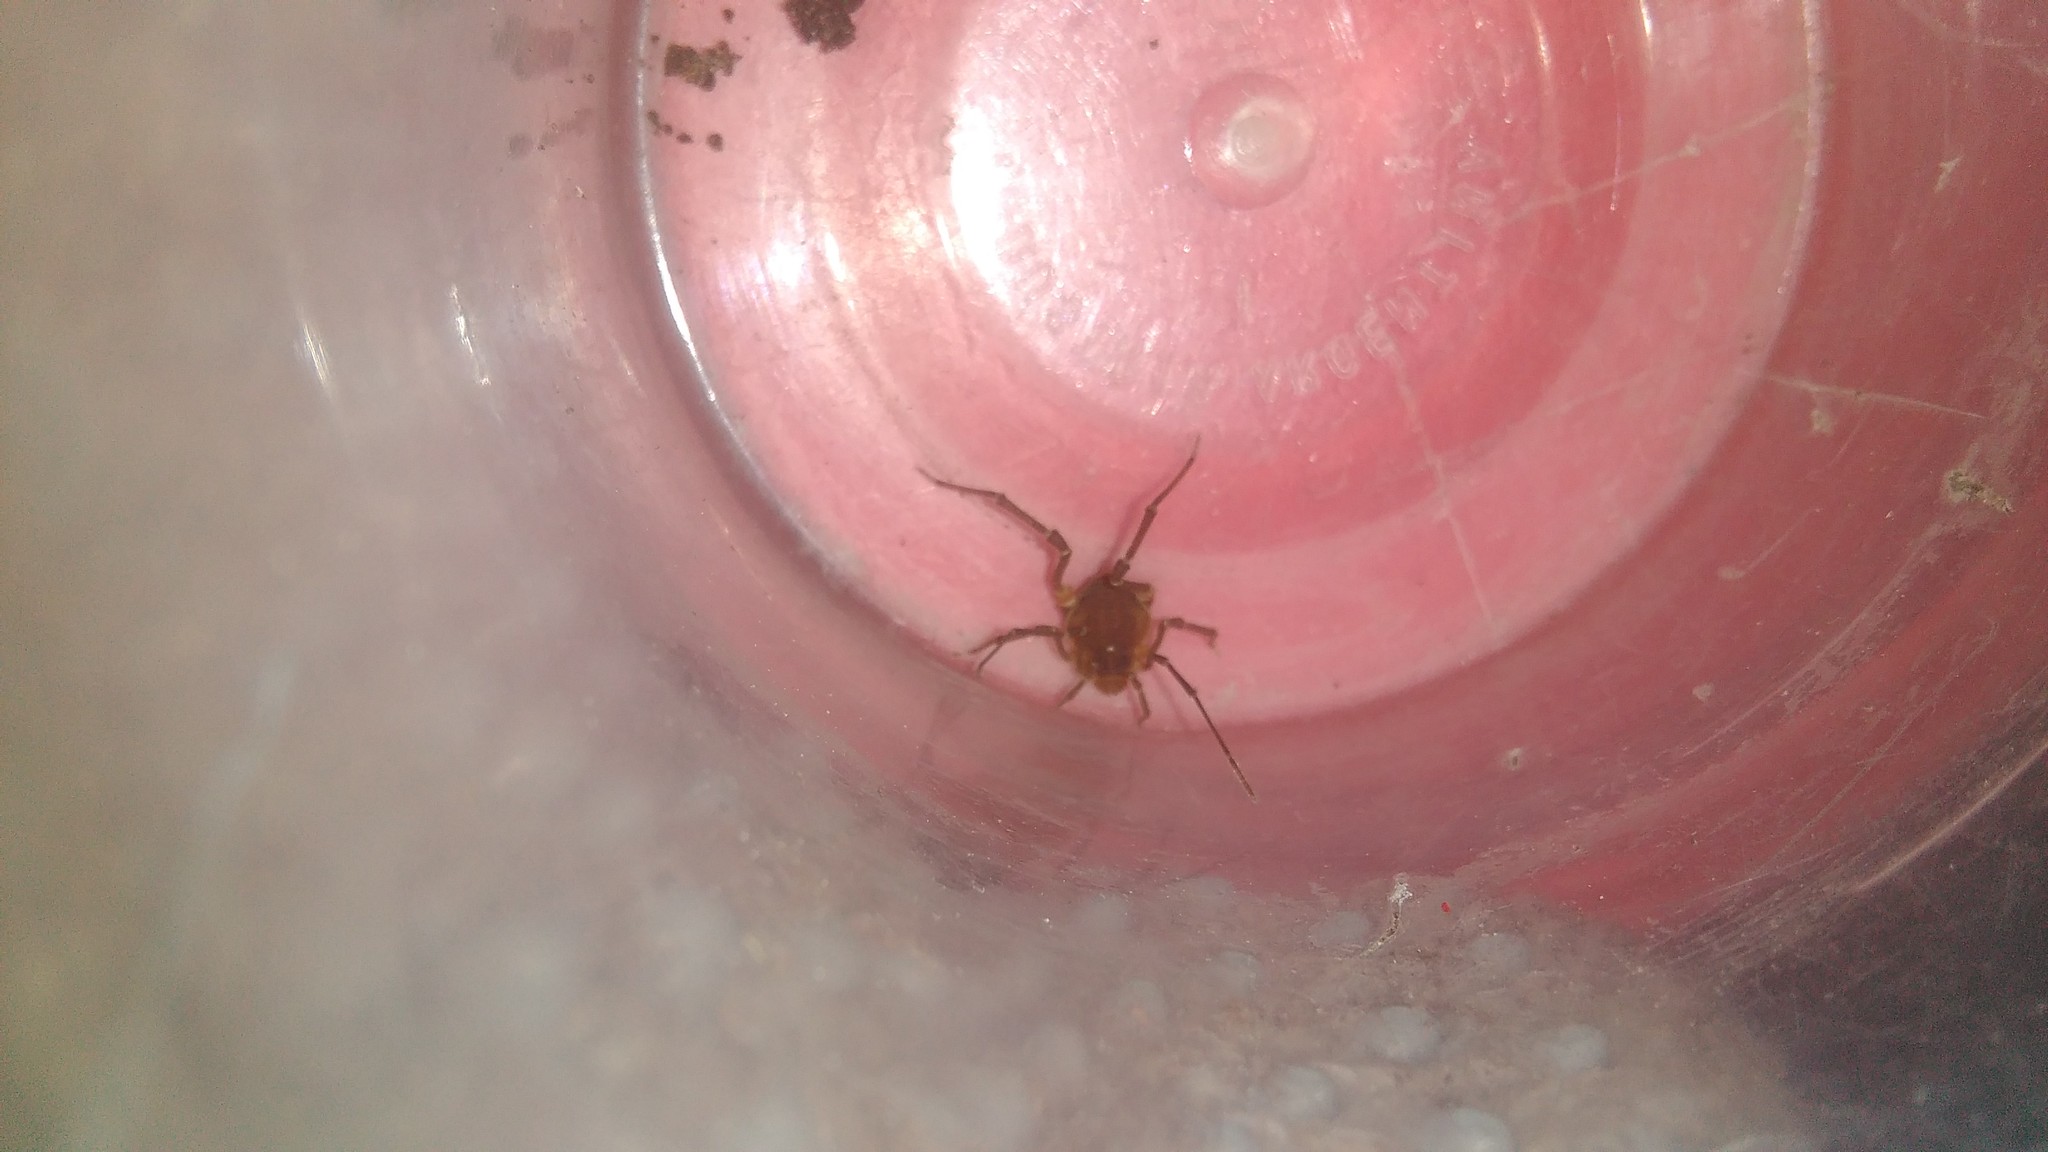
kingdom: Animalia
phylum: Arthropoda
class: Arachnida
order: Opiliones
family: Gonyleptidae
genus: Pachyloides
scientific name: Pachyloides thorellii
